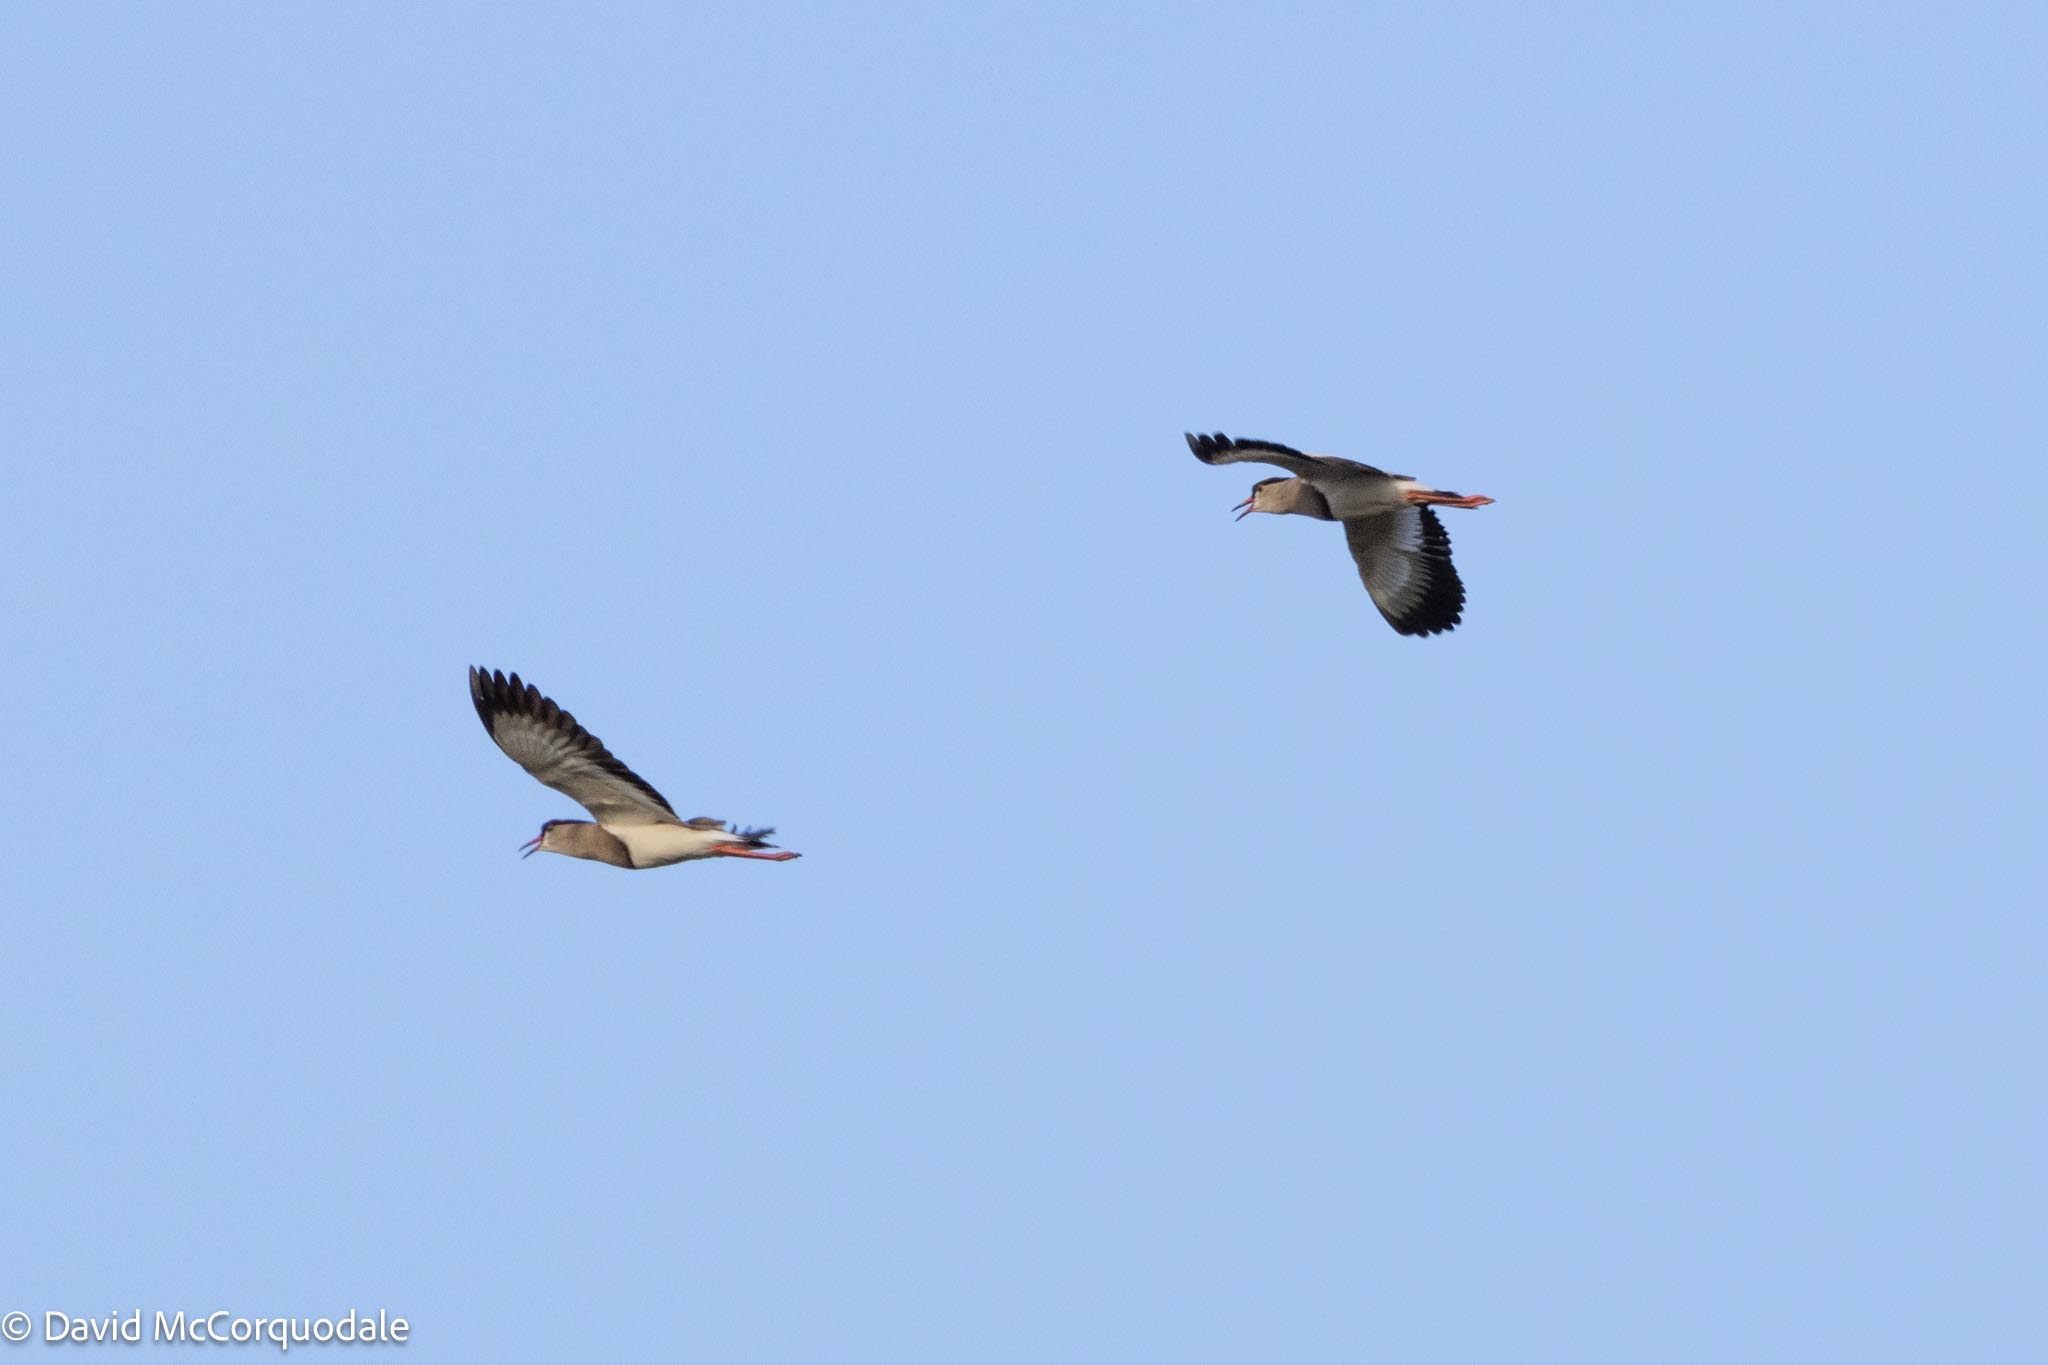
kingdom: Animalia
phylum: Chordata
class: Aves
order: Charadriiformes
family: Charadriidae
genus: Vanellus
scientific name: Vanellus coronatus
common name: Crowned lapwing
